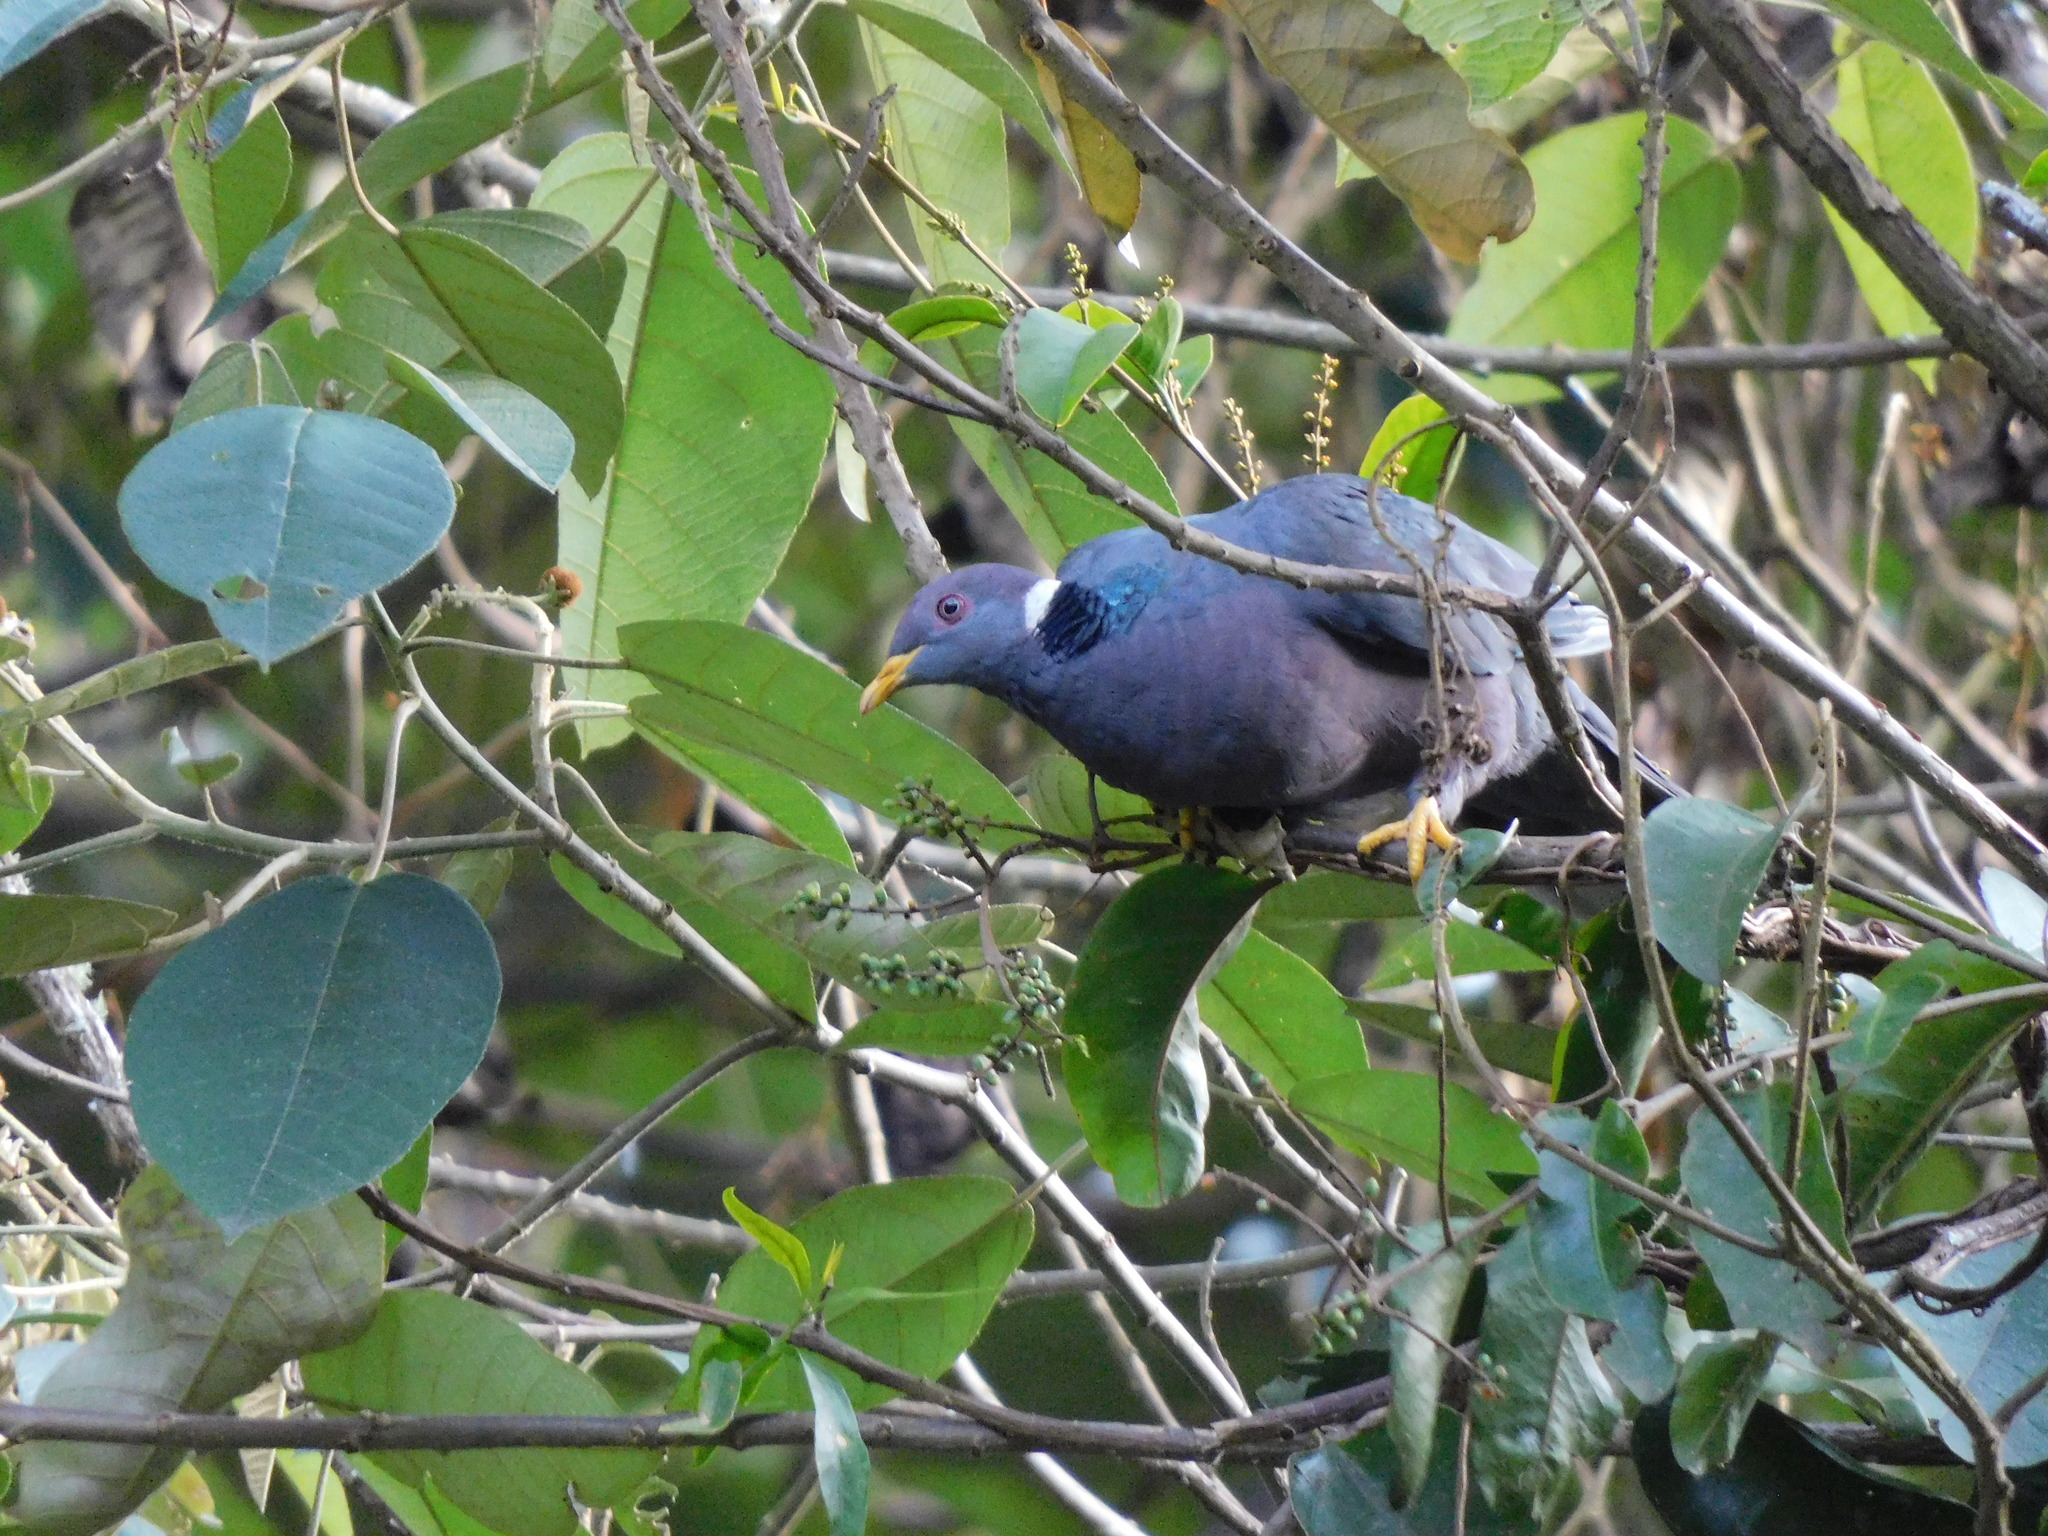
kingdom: Animalia
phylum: Chordata
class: Aves
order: Columbiformes
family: Columbidae
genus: Patagioenas
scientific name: Patagioenas fasciata
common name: Band-tailed pigeon
